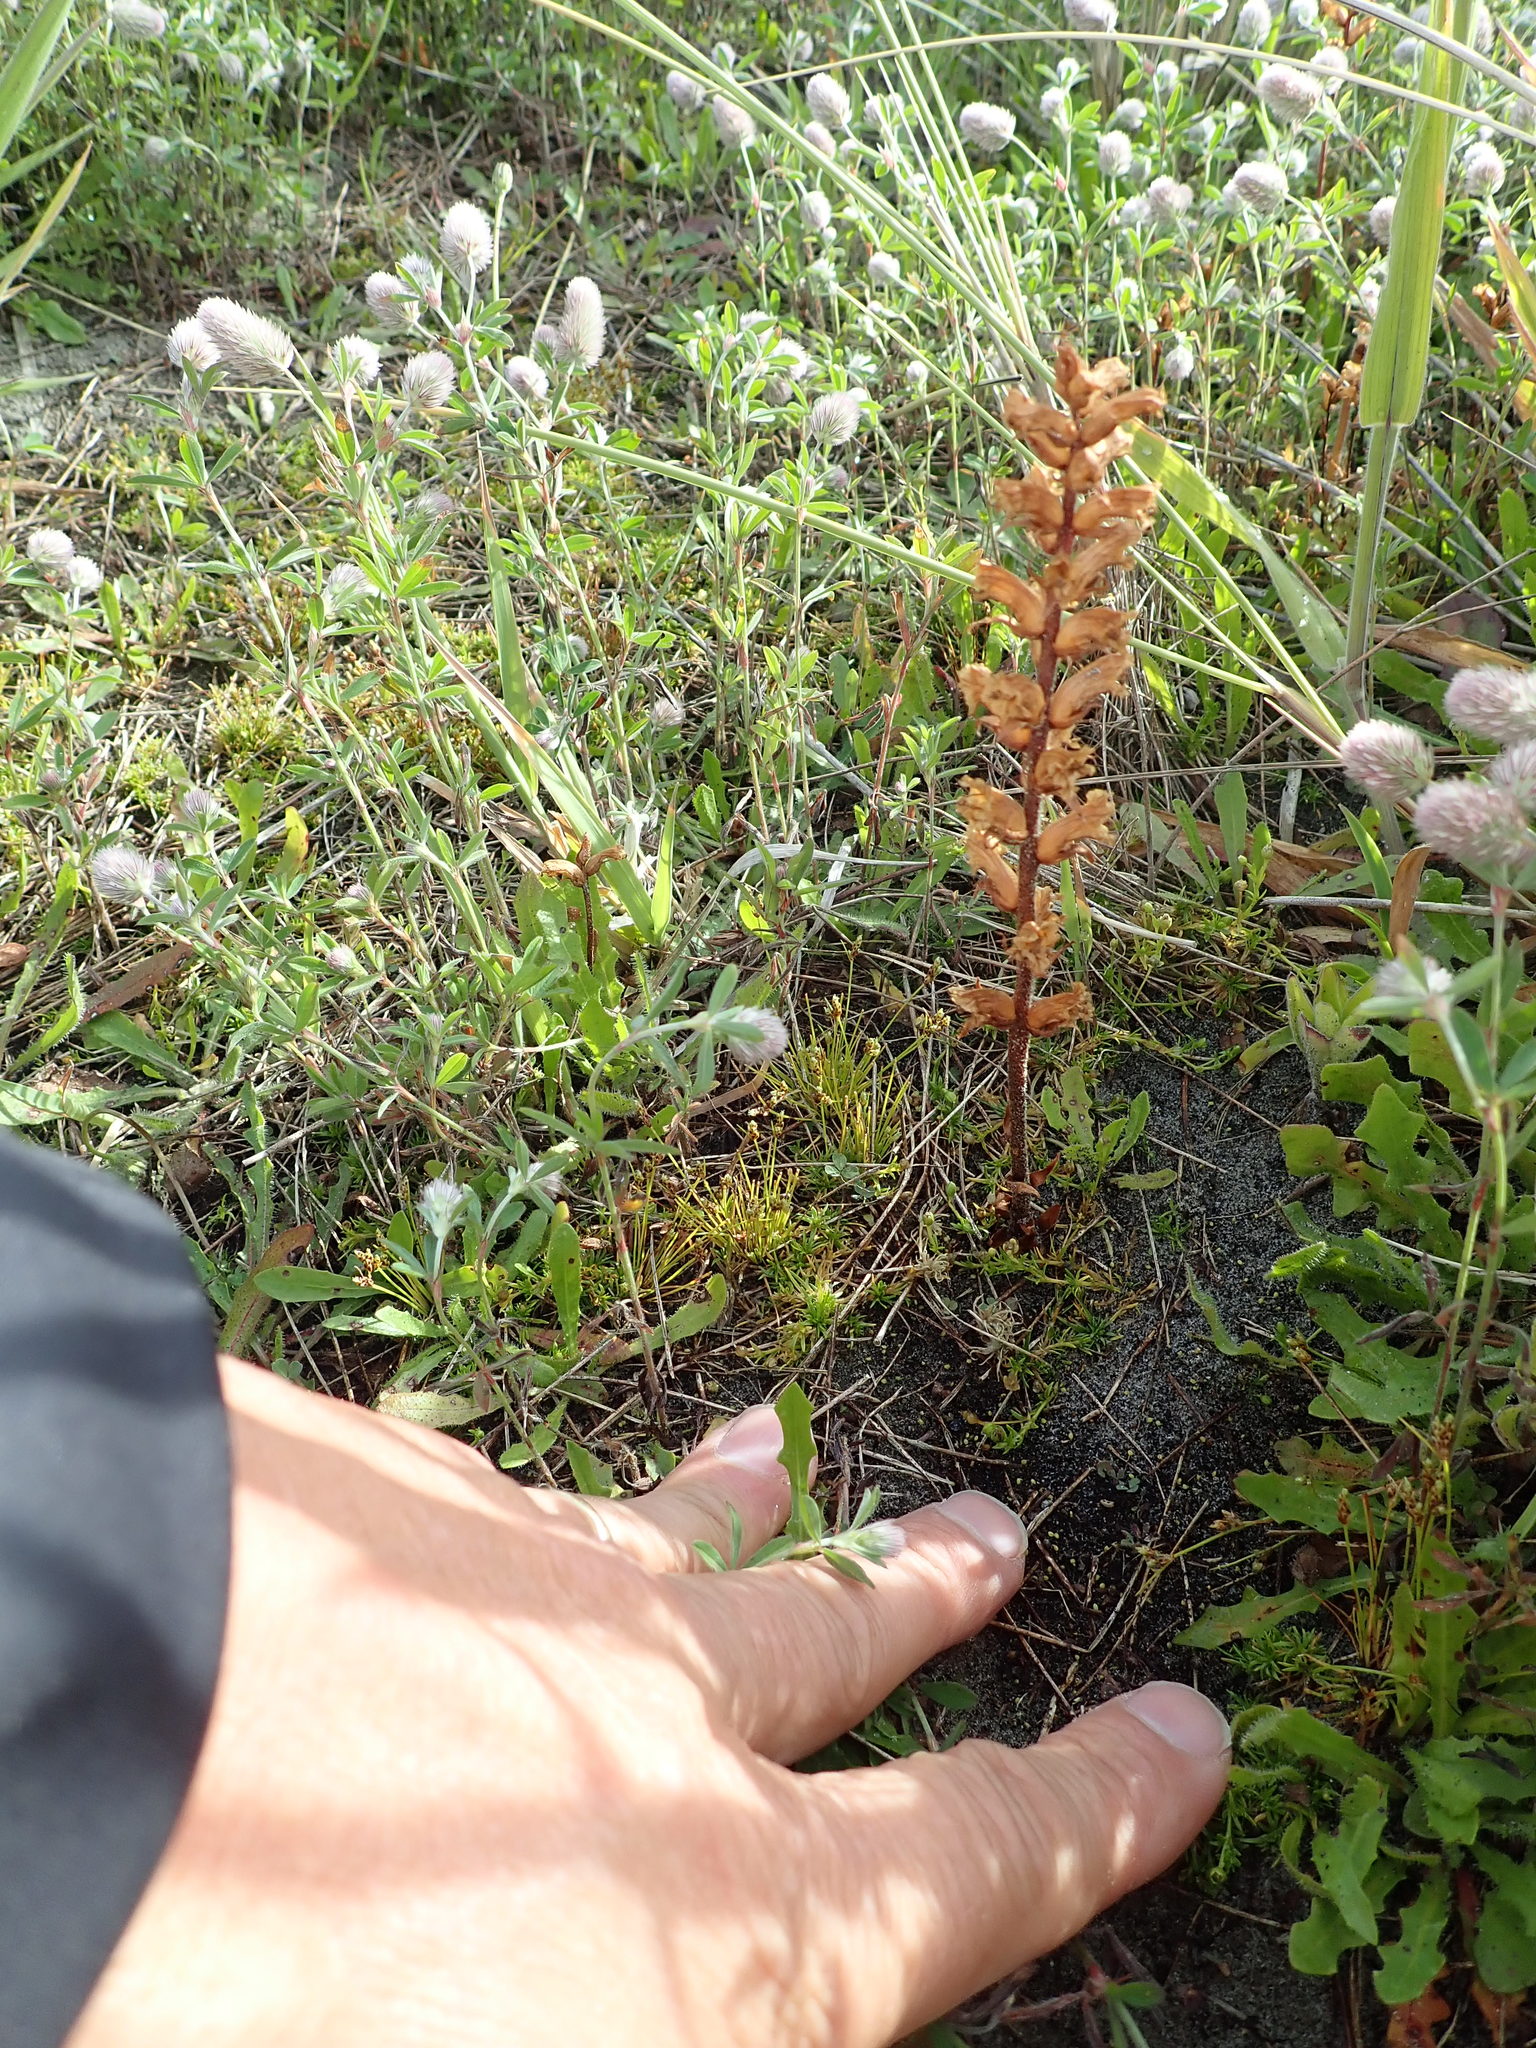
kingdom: Plantae
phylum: Tracheophyta
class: Magnoliopsida
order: Lamiales
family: Orobanchaceae
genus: Orobanche
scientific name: Orobanche minor
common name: Common broomrape
